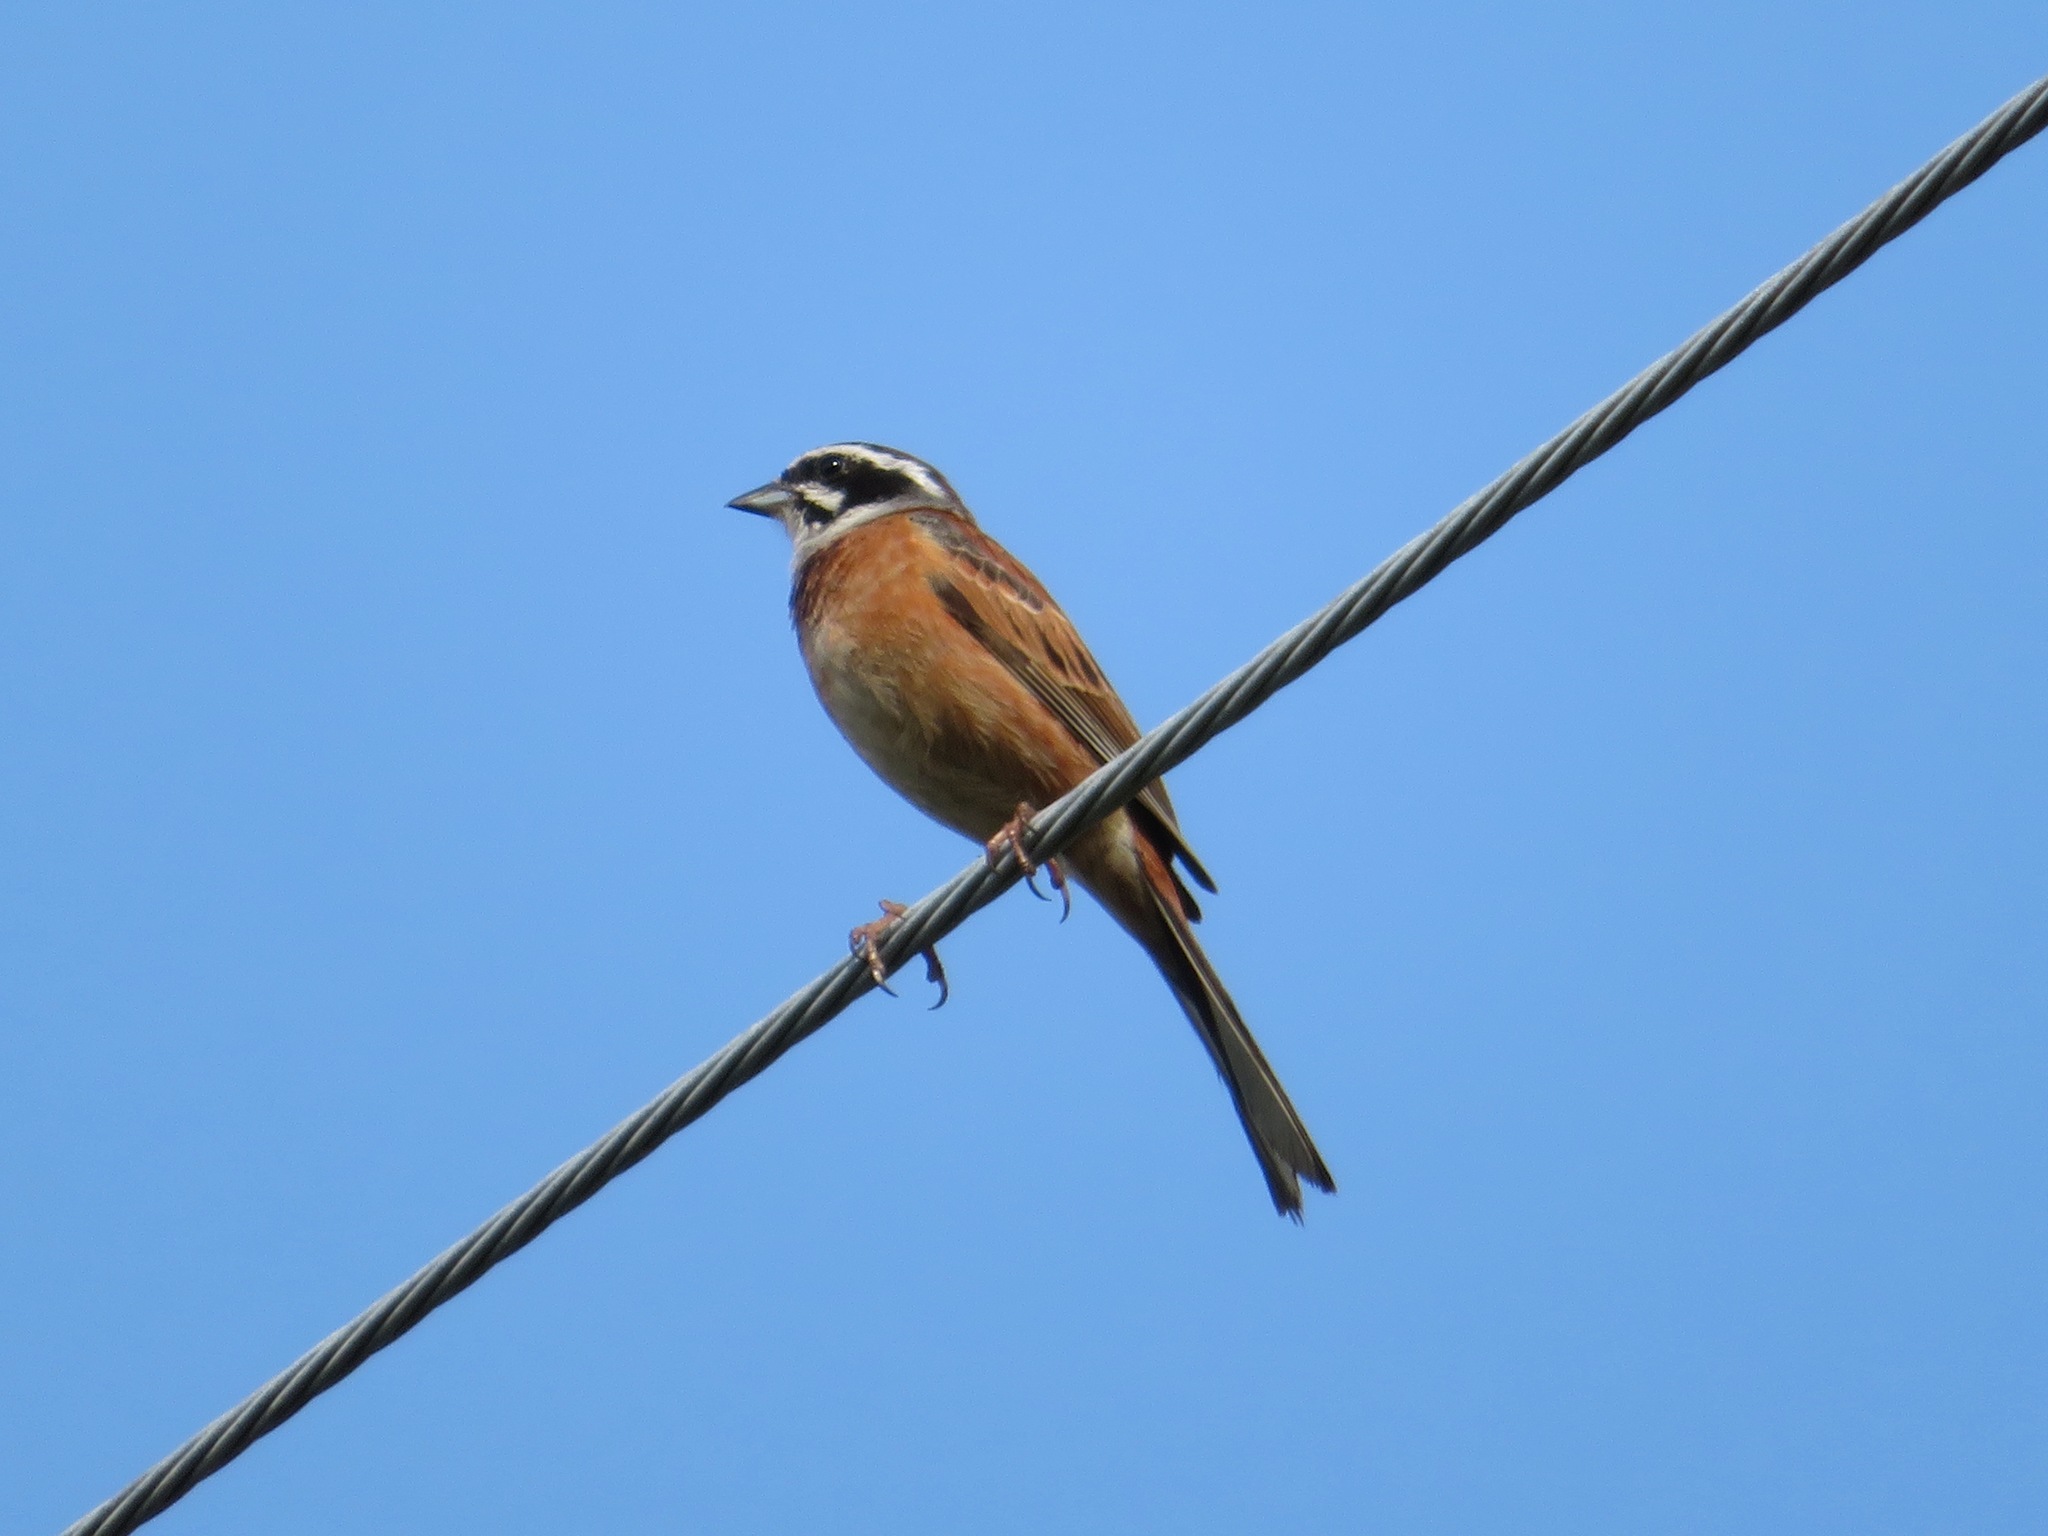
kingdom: Animalia
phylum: Chordata
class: Aves
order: Passeriformes
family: Emberizidae
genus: Emberiza
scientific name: Emberiza cioides
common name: Meadow bunting
